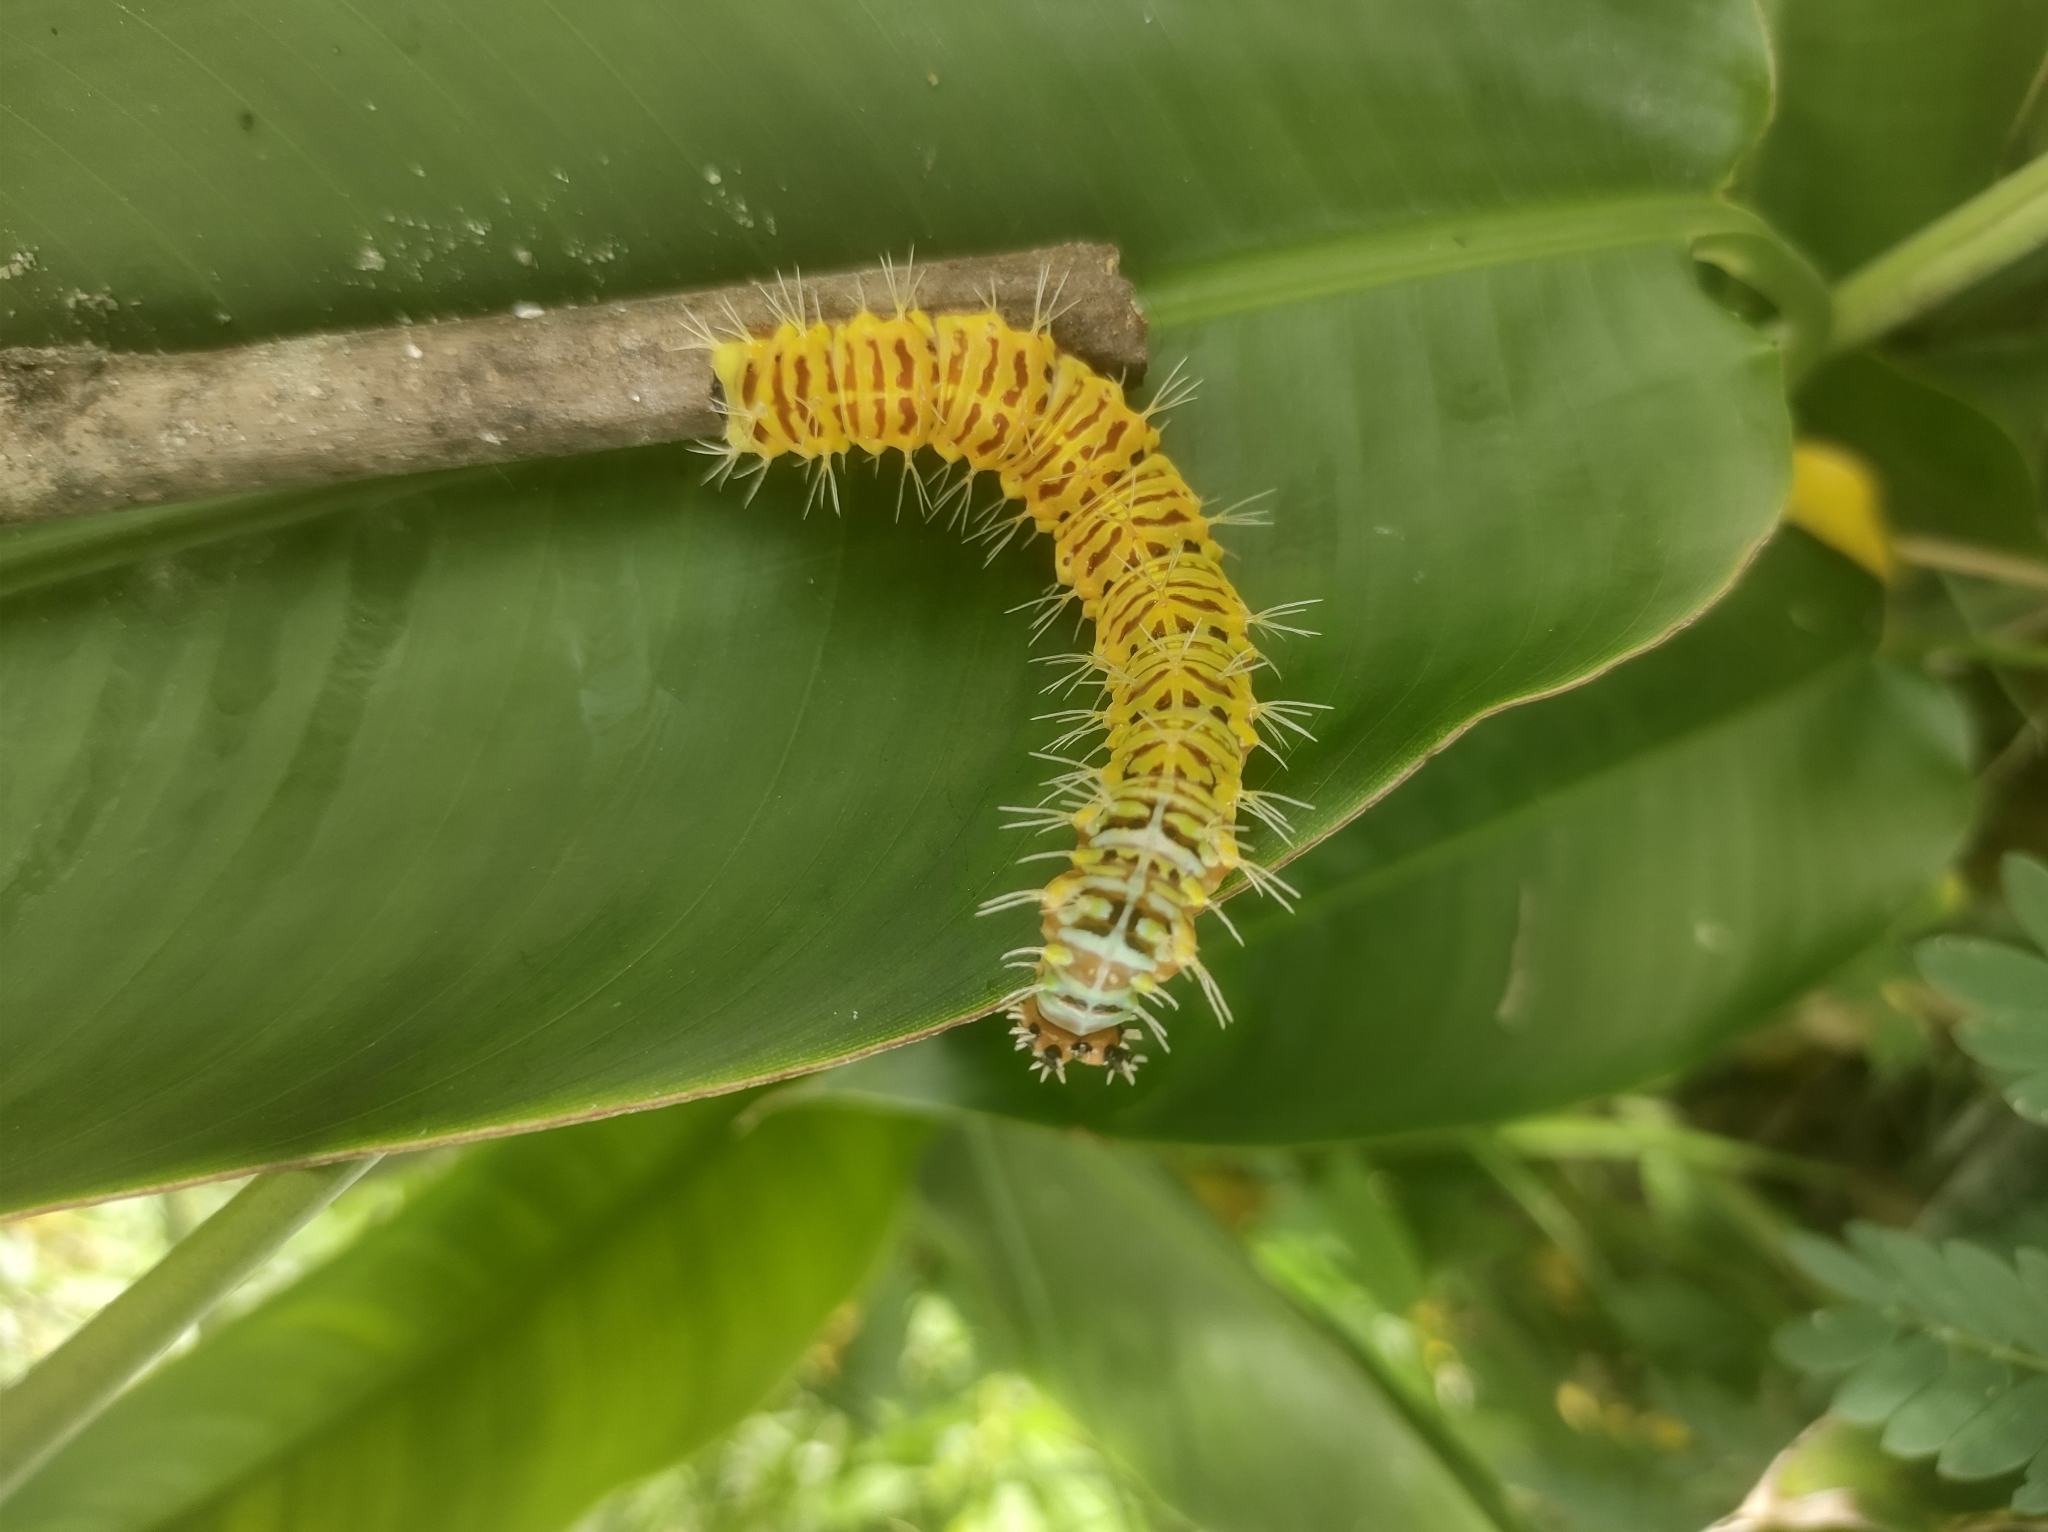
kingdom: Animalia
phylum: Arthropoda
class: Insecta
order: Lepidoptera
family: Nymphalidae
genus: Historis
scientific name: Historis odius
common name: Orion cecropian
